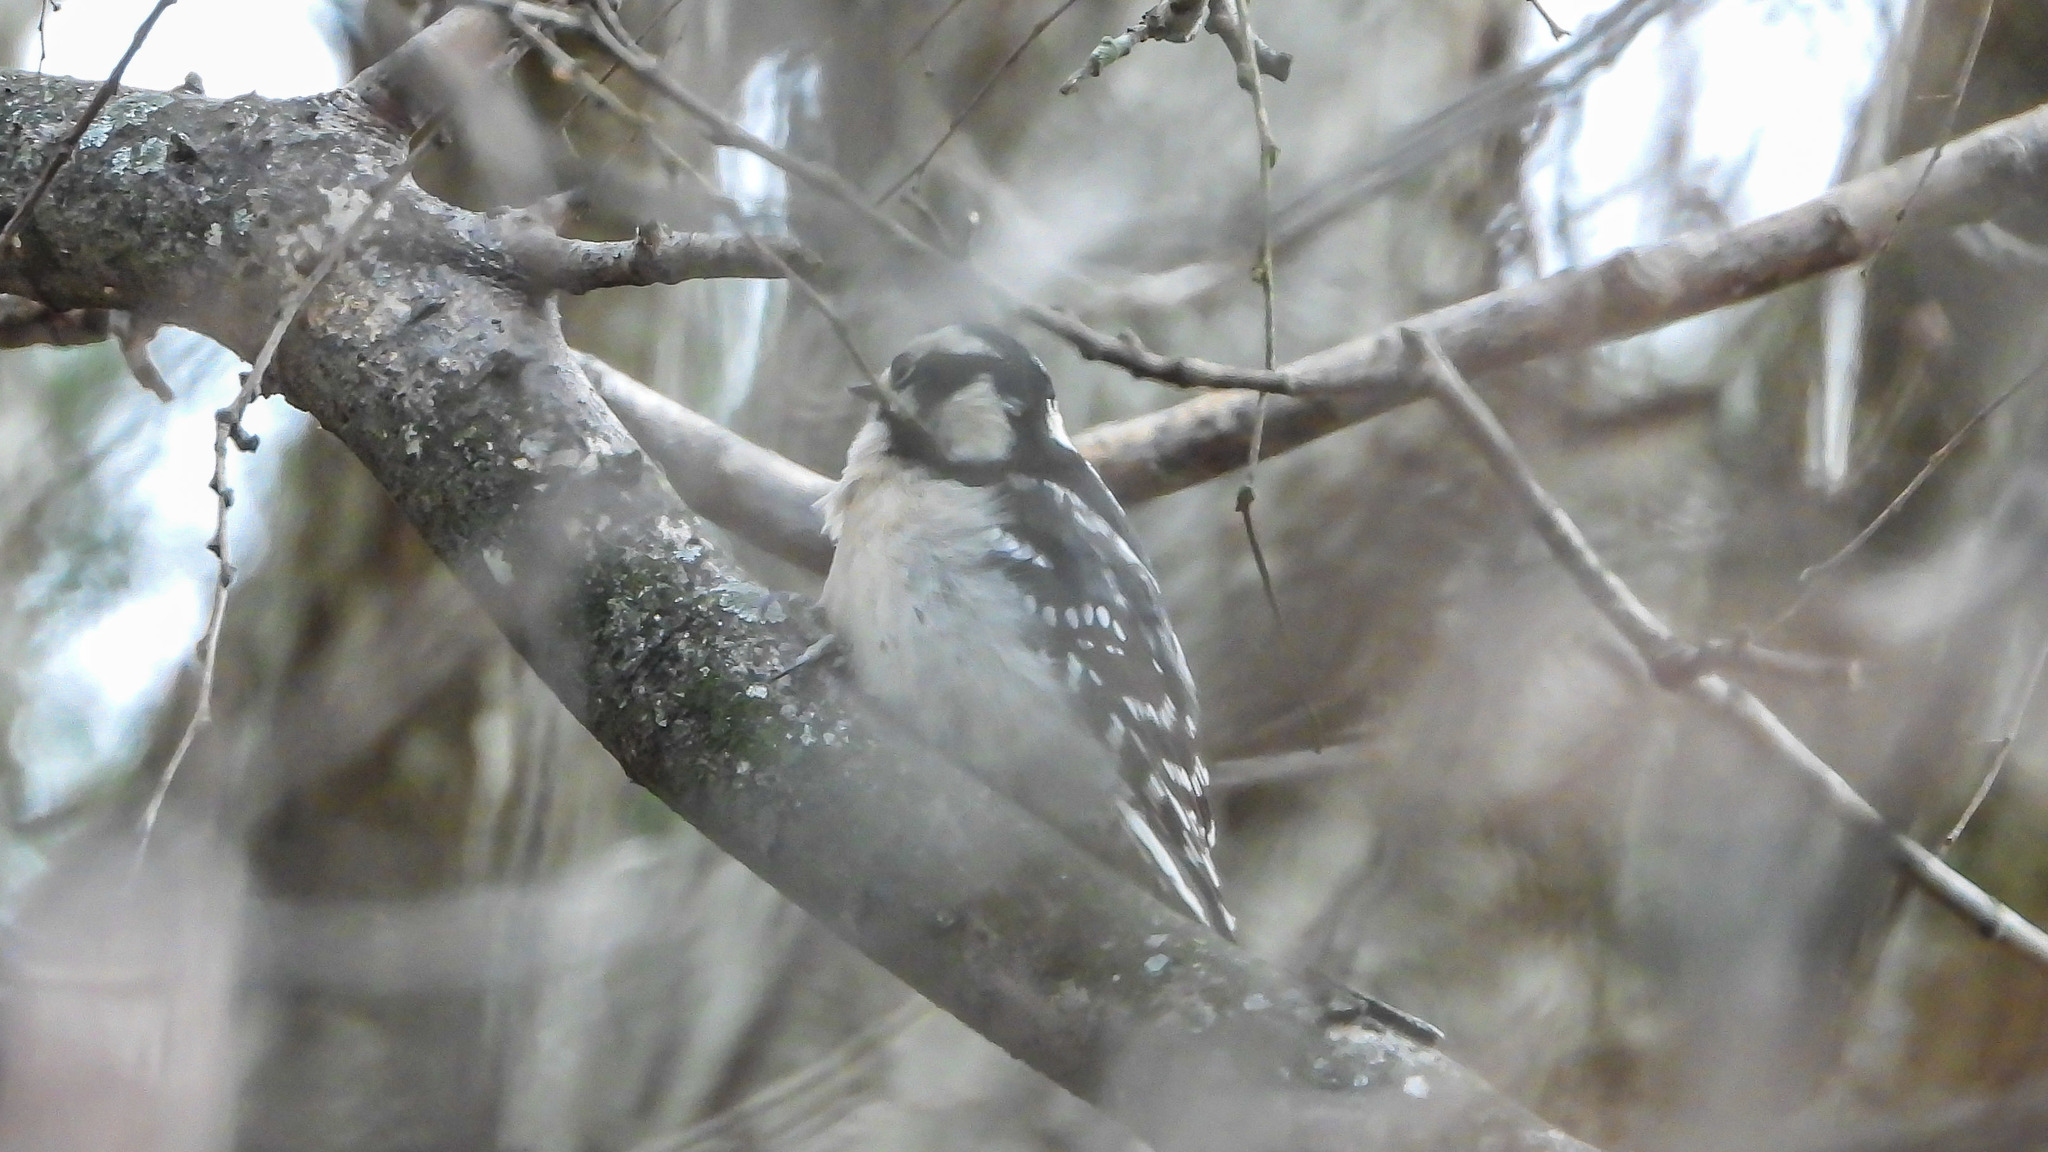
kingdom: Animalia
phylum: Chordata
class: Aves
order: Piciformes
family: Picidae
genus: Dryobates
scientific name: Dryobates pubescens
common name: Downy woodpecker
